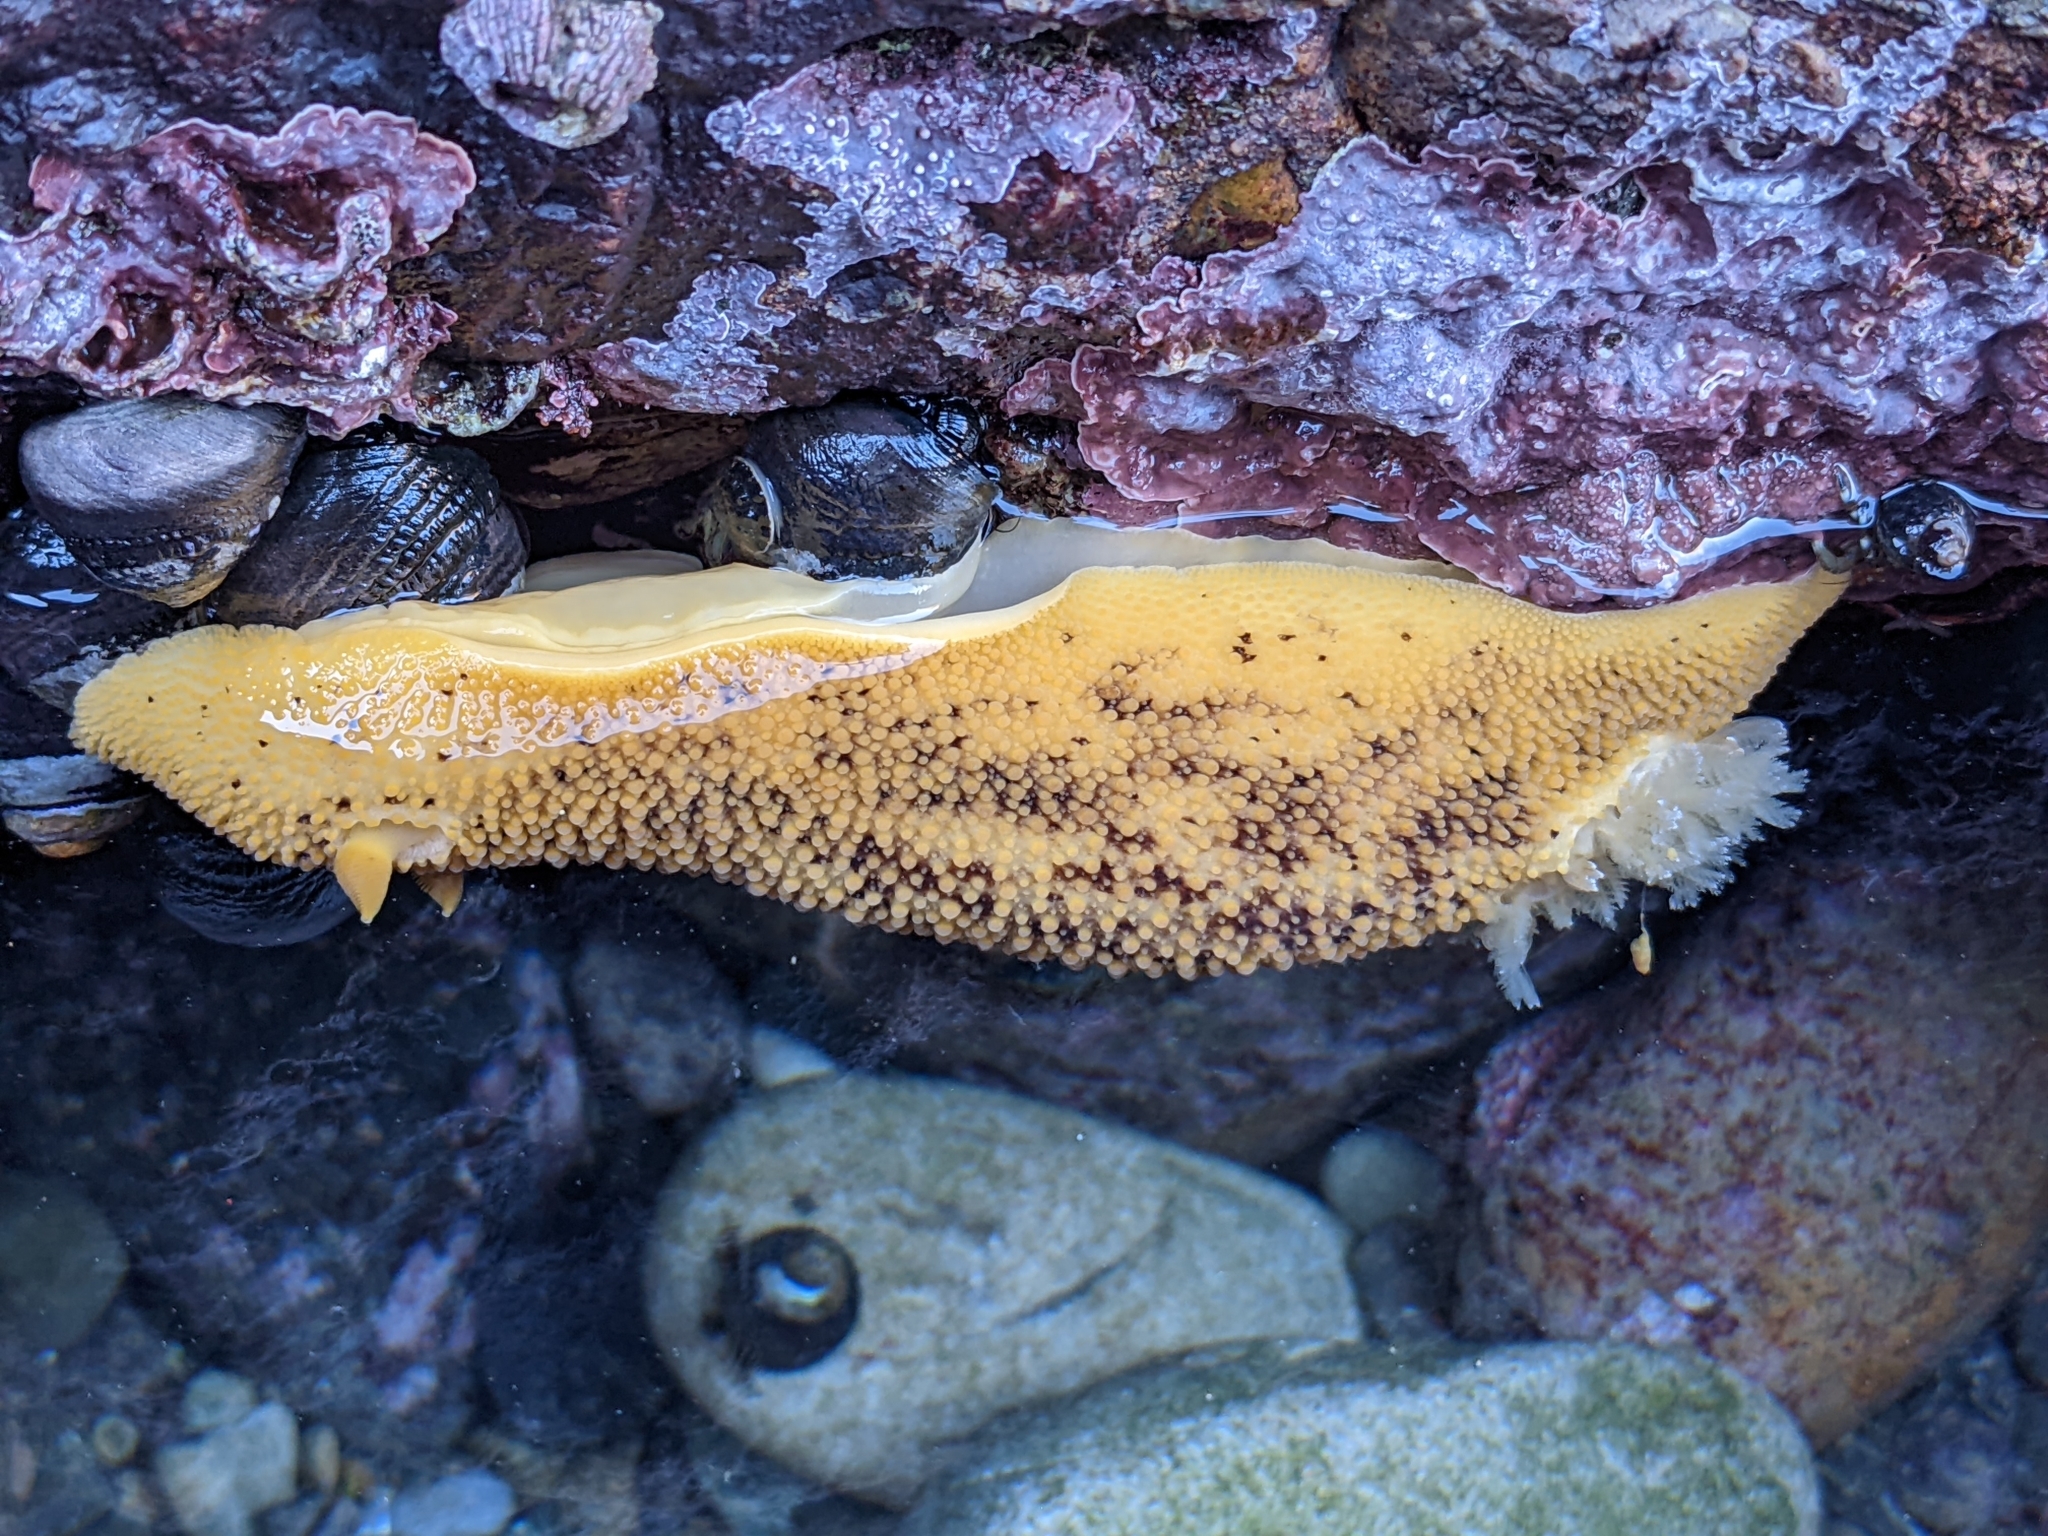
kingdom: Animalia
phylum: Mollusca
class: Gastropoda
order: Nudibranchia
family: Discodorididae
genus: Peltodoris
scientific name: Peltodoris nobilis
